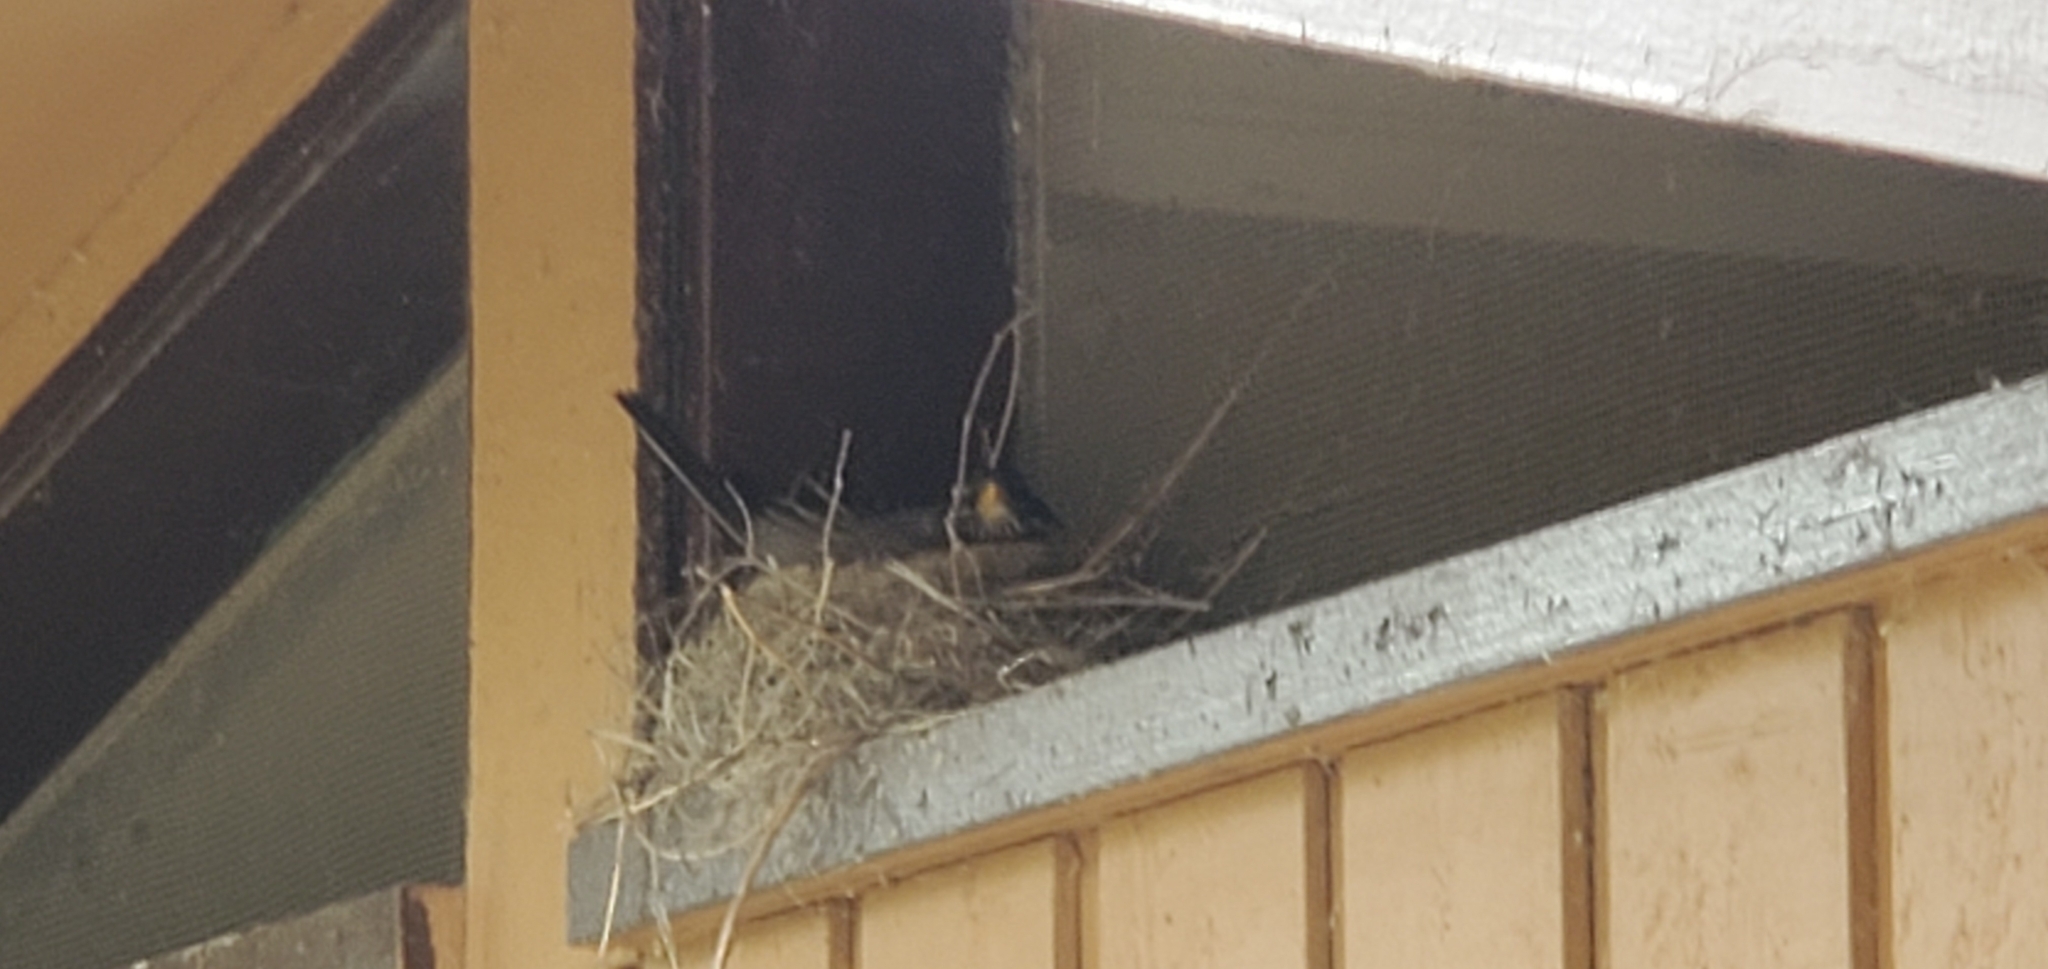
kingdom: Animalia
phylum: Chordata
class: Aves
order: Passeriformes
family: Turdidae
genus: Turdus
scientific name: Turdus migratorius
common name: American robin
